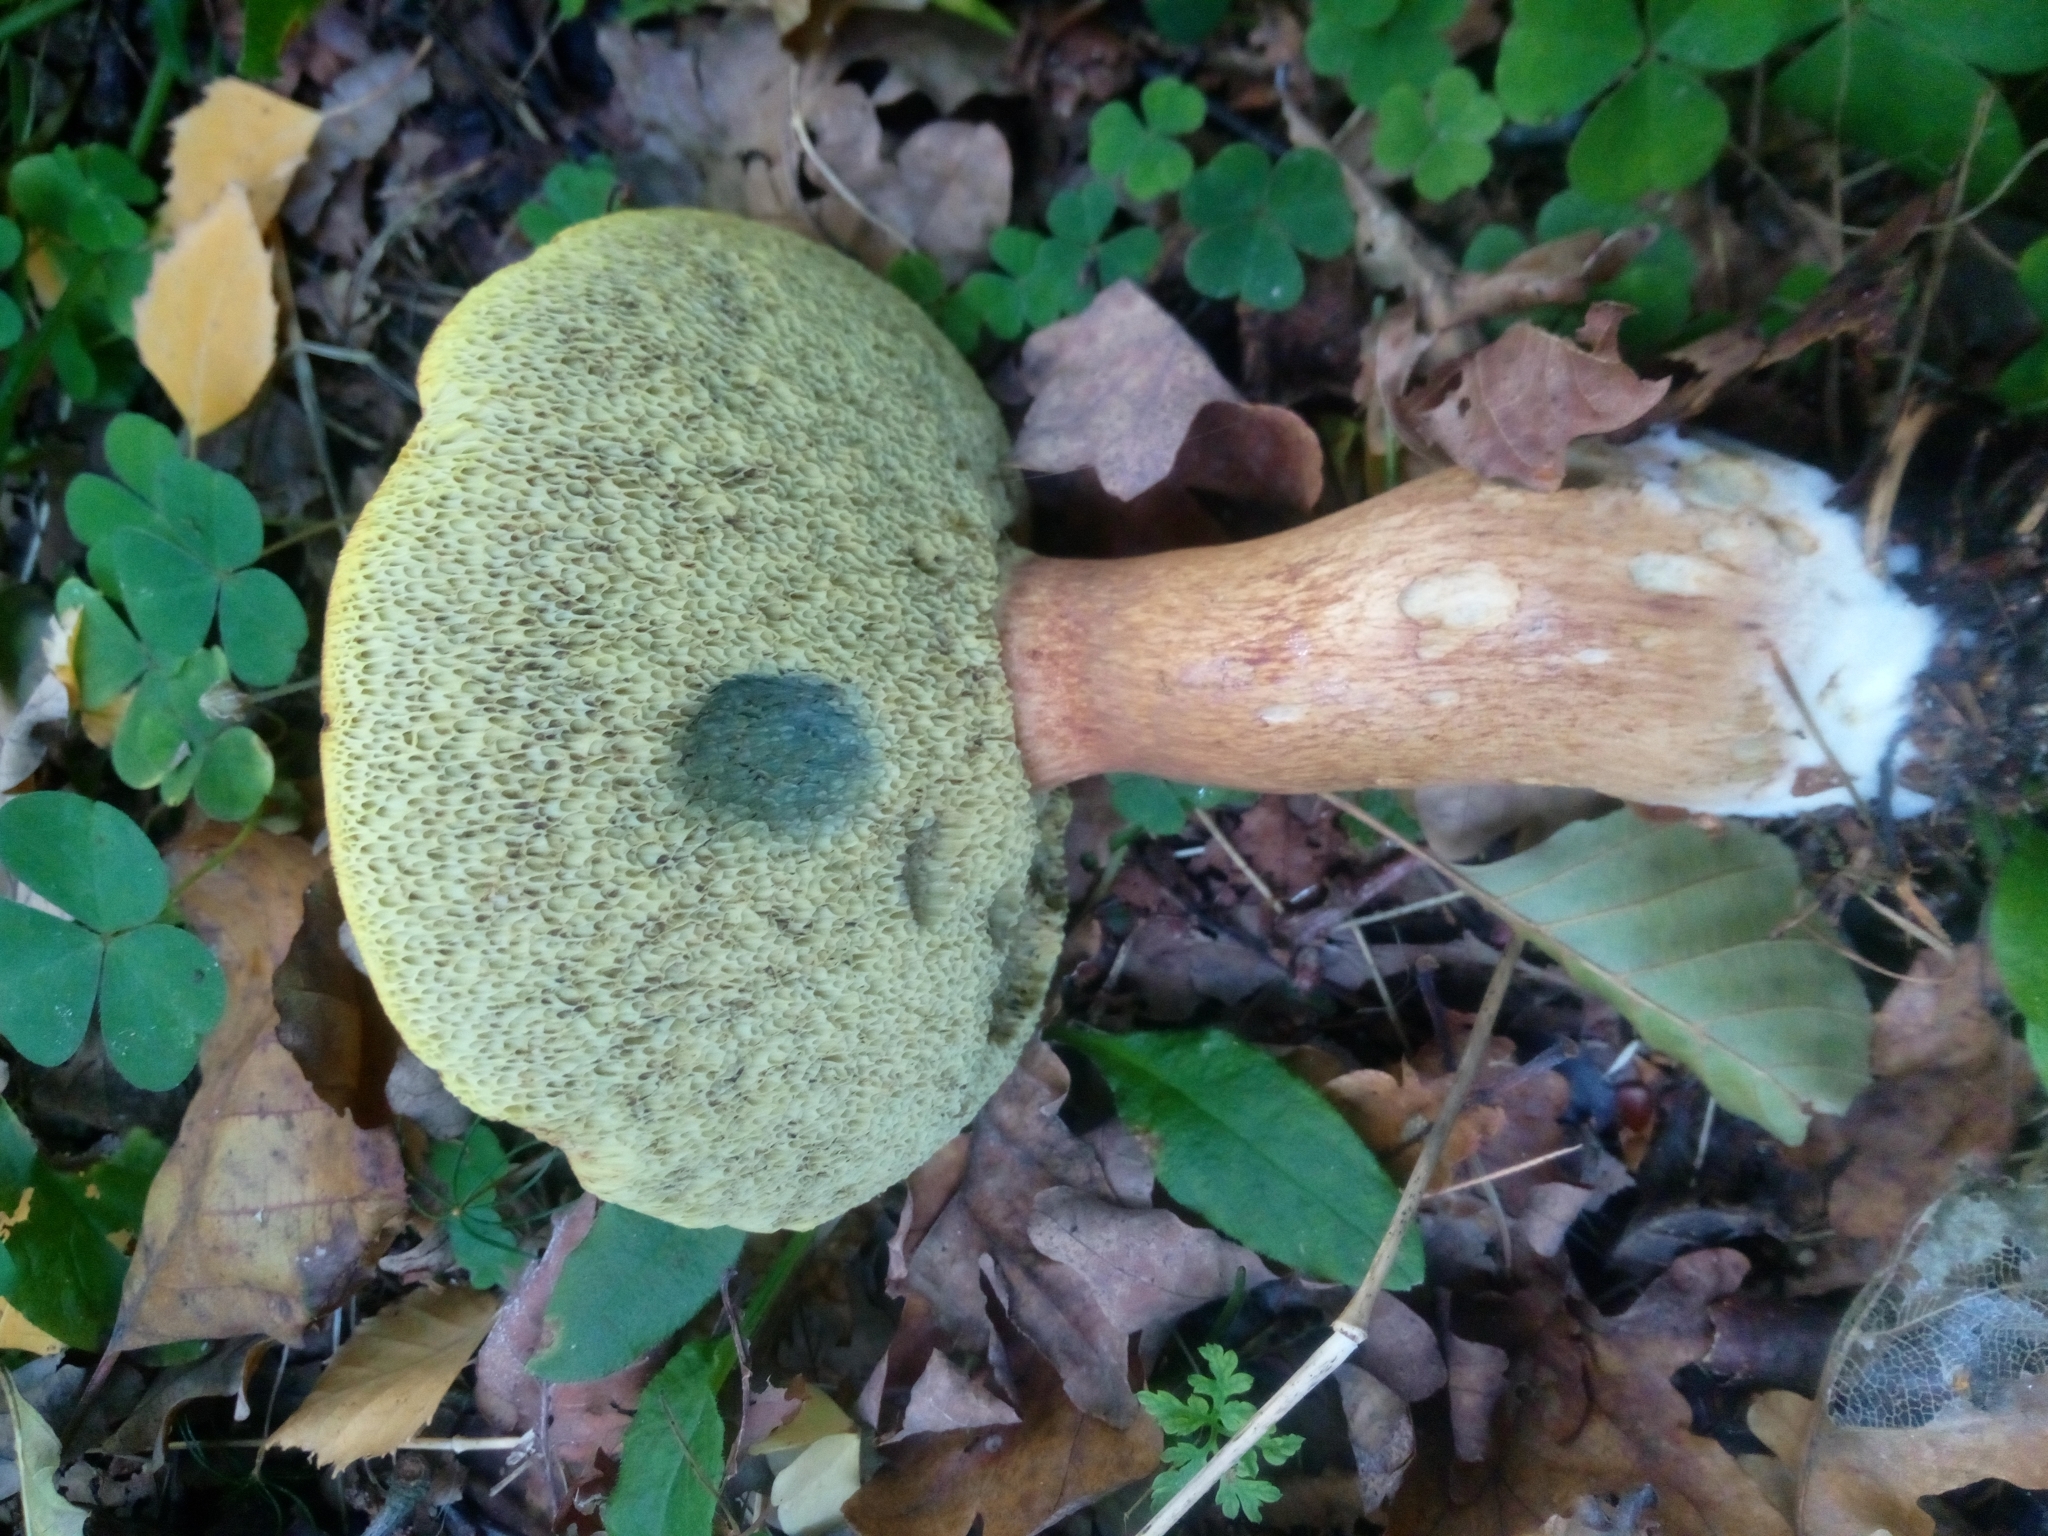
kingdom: Fungi
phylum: Basidiomycota
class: Agaricomycetes
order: Boletales
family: Boletaceae
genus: Imleria
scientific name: Imleria badia
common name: Bay bolete
